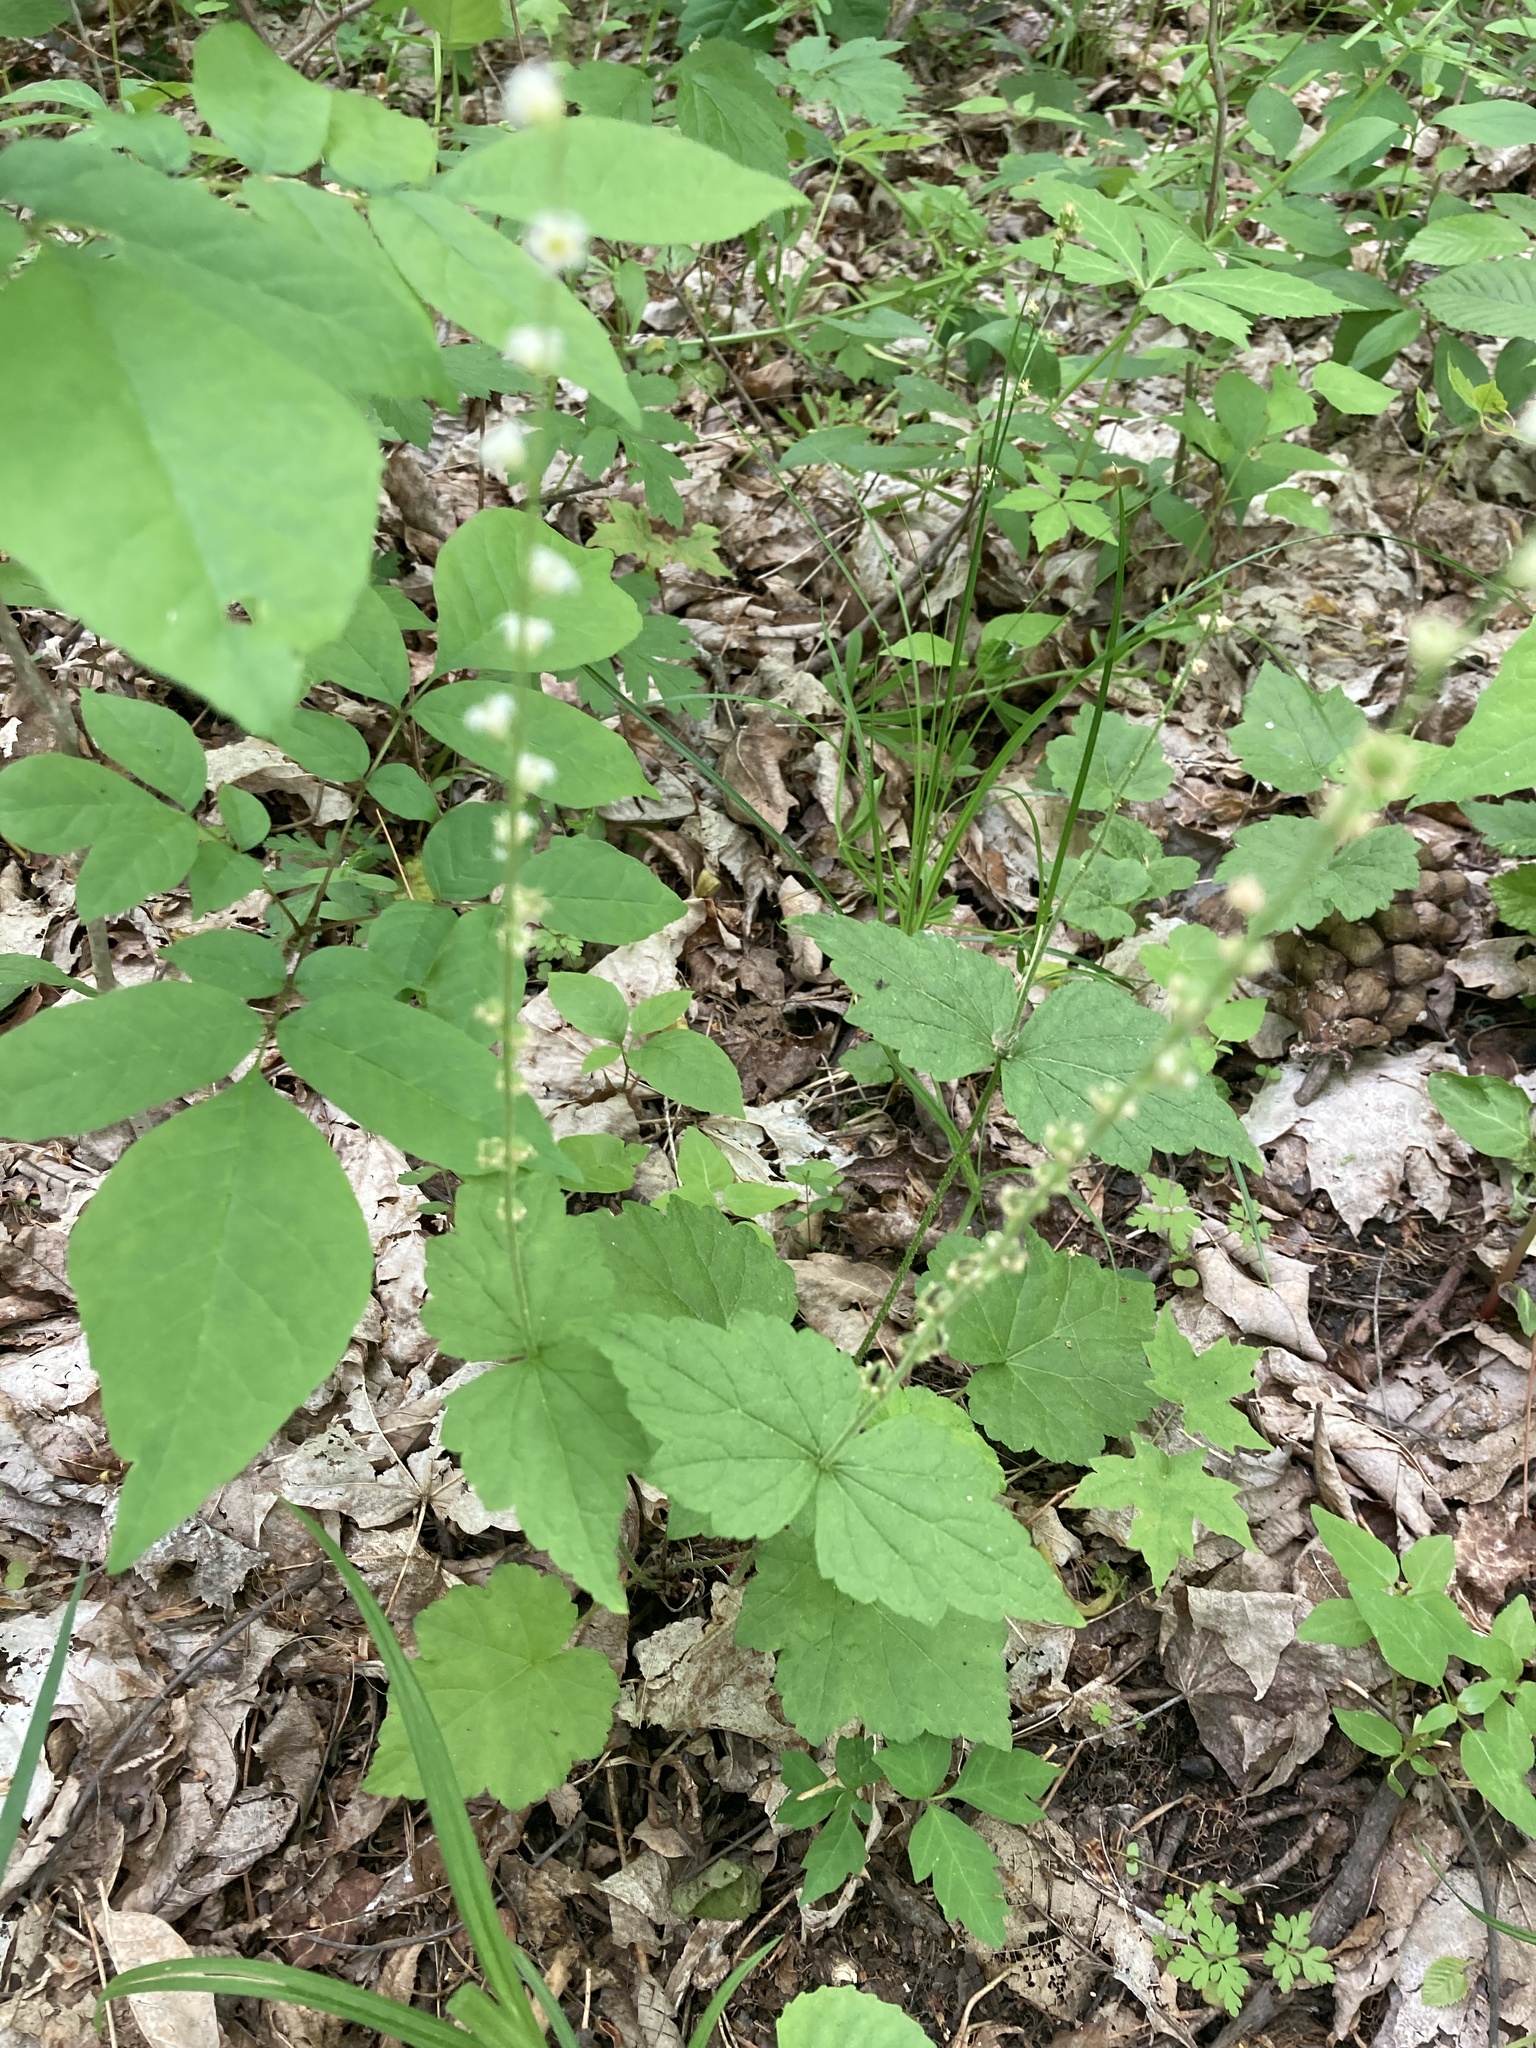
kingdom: Plantae
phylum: Tracheophyta
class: Magnoliopsida
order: Saxifragales
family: Saxifragaceae
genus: Mitella
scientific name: Mitella diphylla
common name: Coolwort
